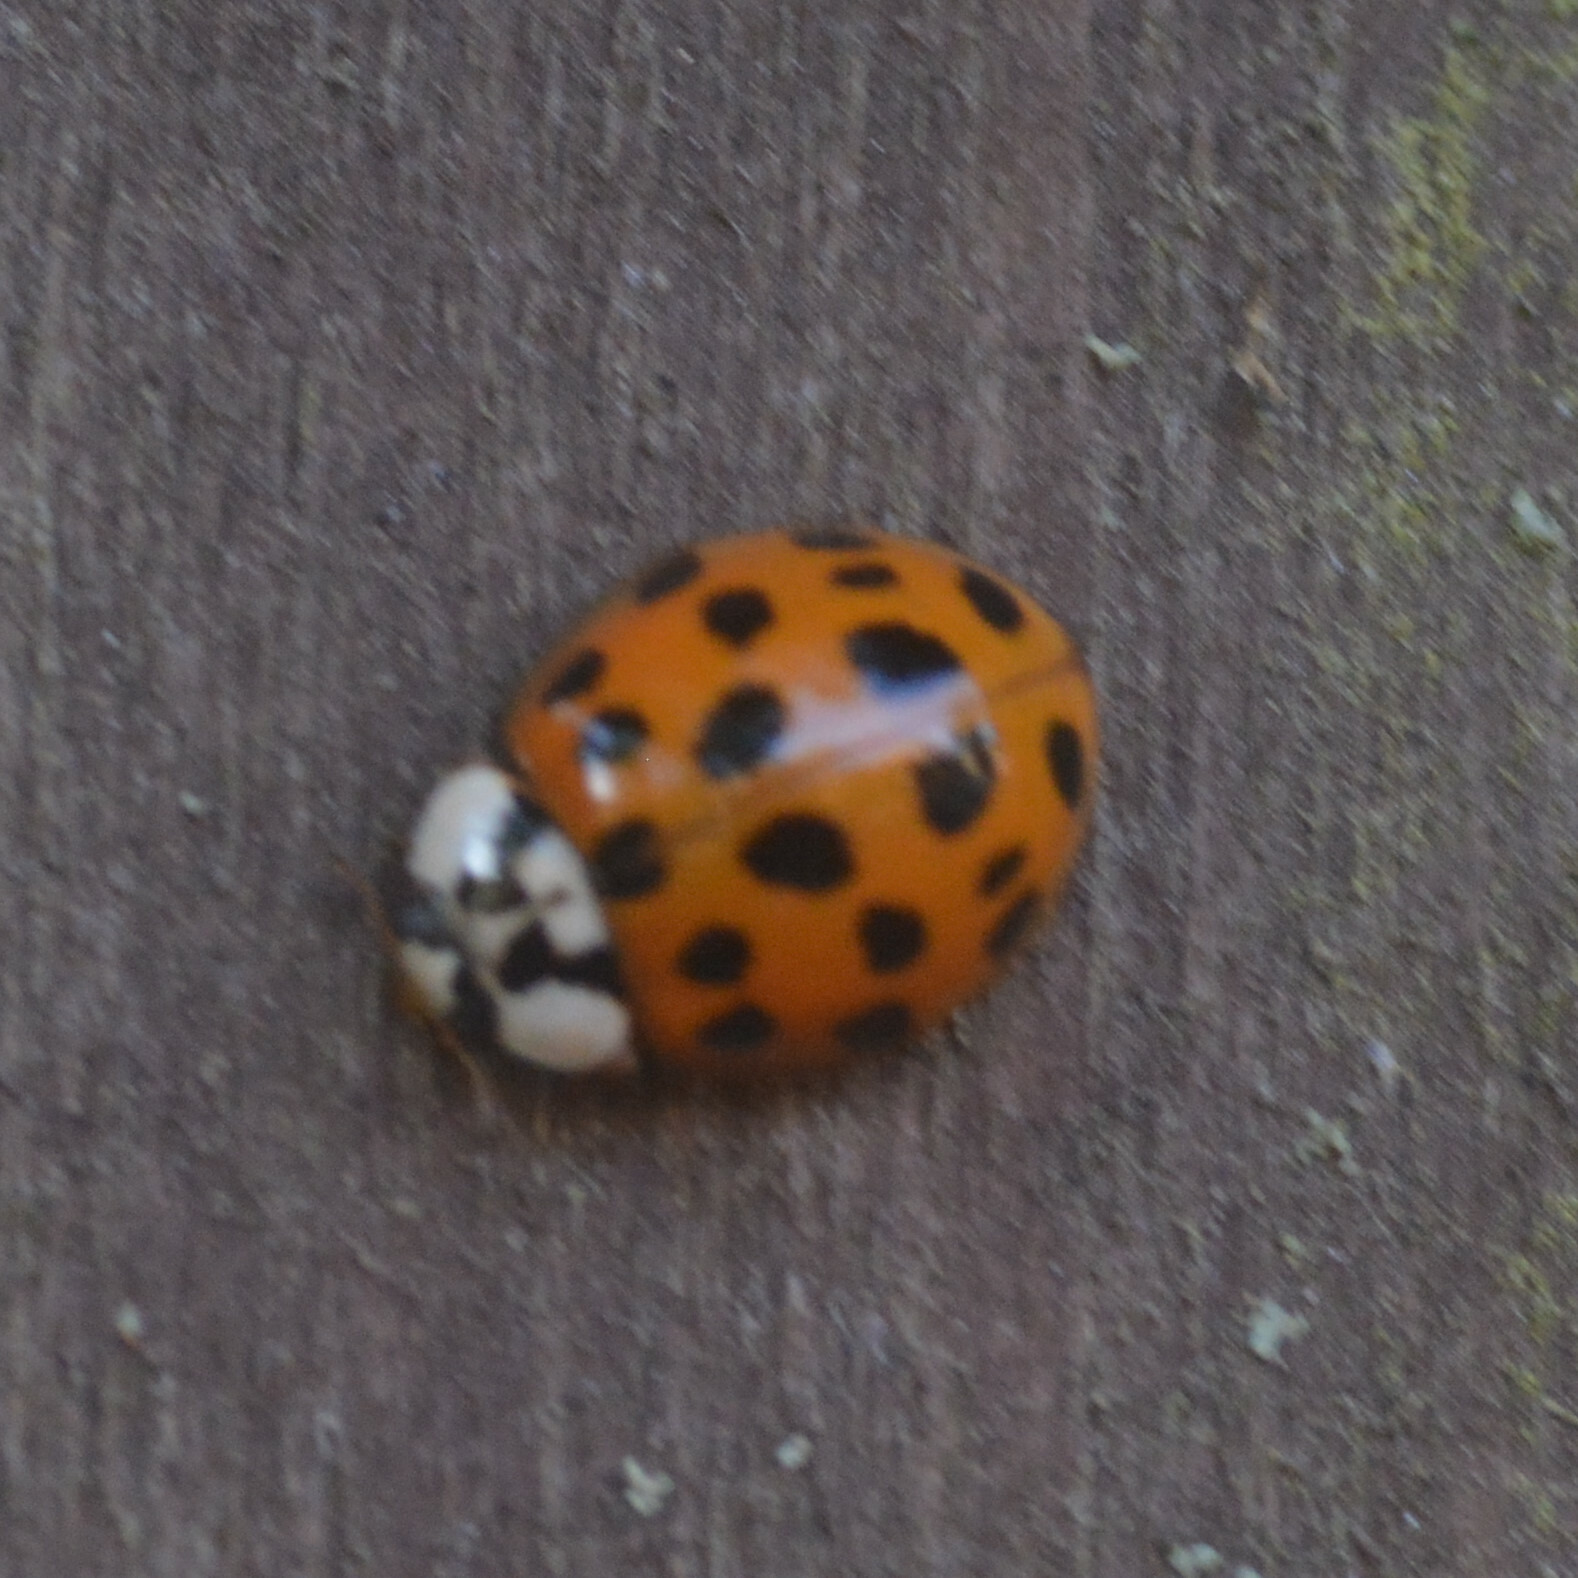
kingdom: Animalia
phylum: Arthropoda
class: Insecta
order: Coleoptera
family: Coccinellidae
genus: Harmonia
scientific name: Harmonia axyridis
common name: Harlequin ladybird
